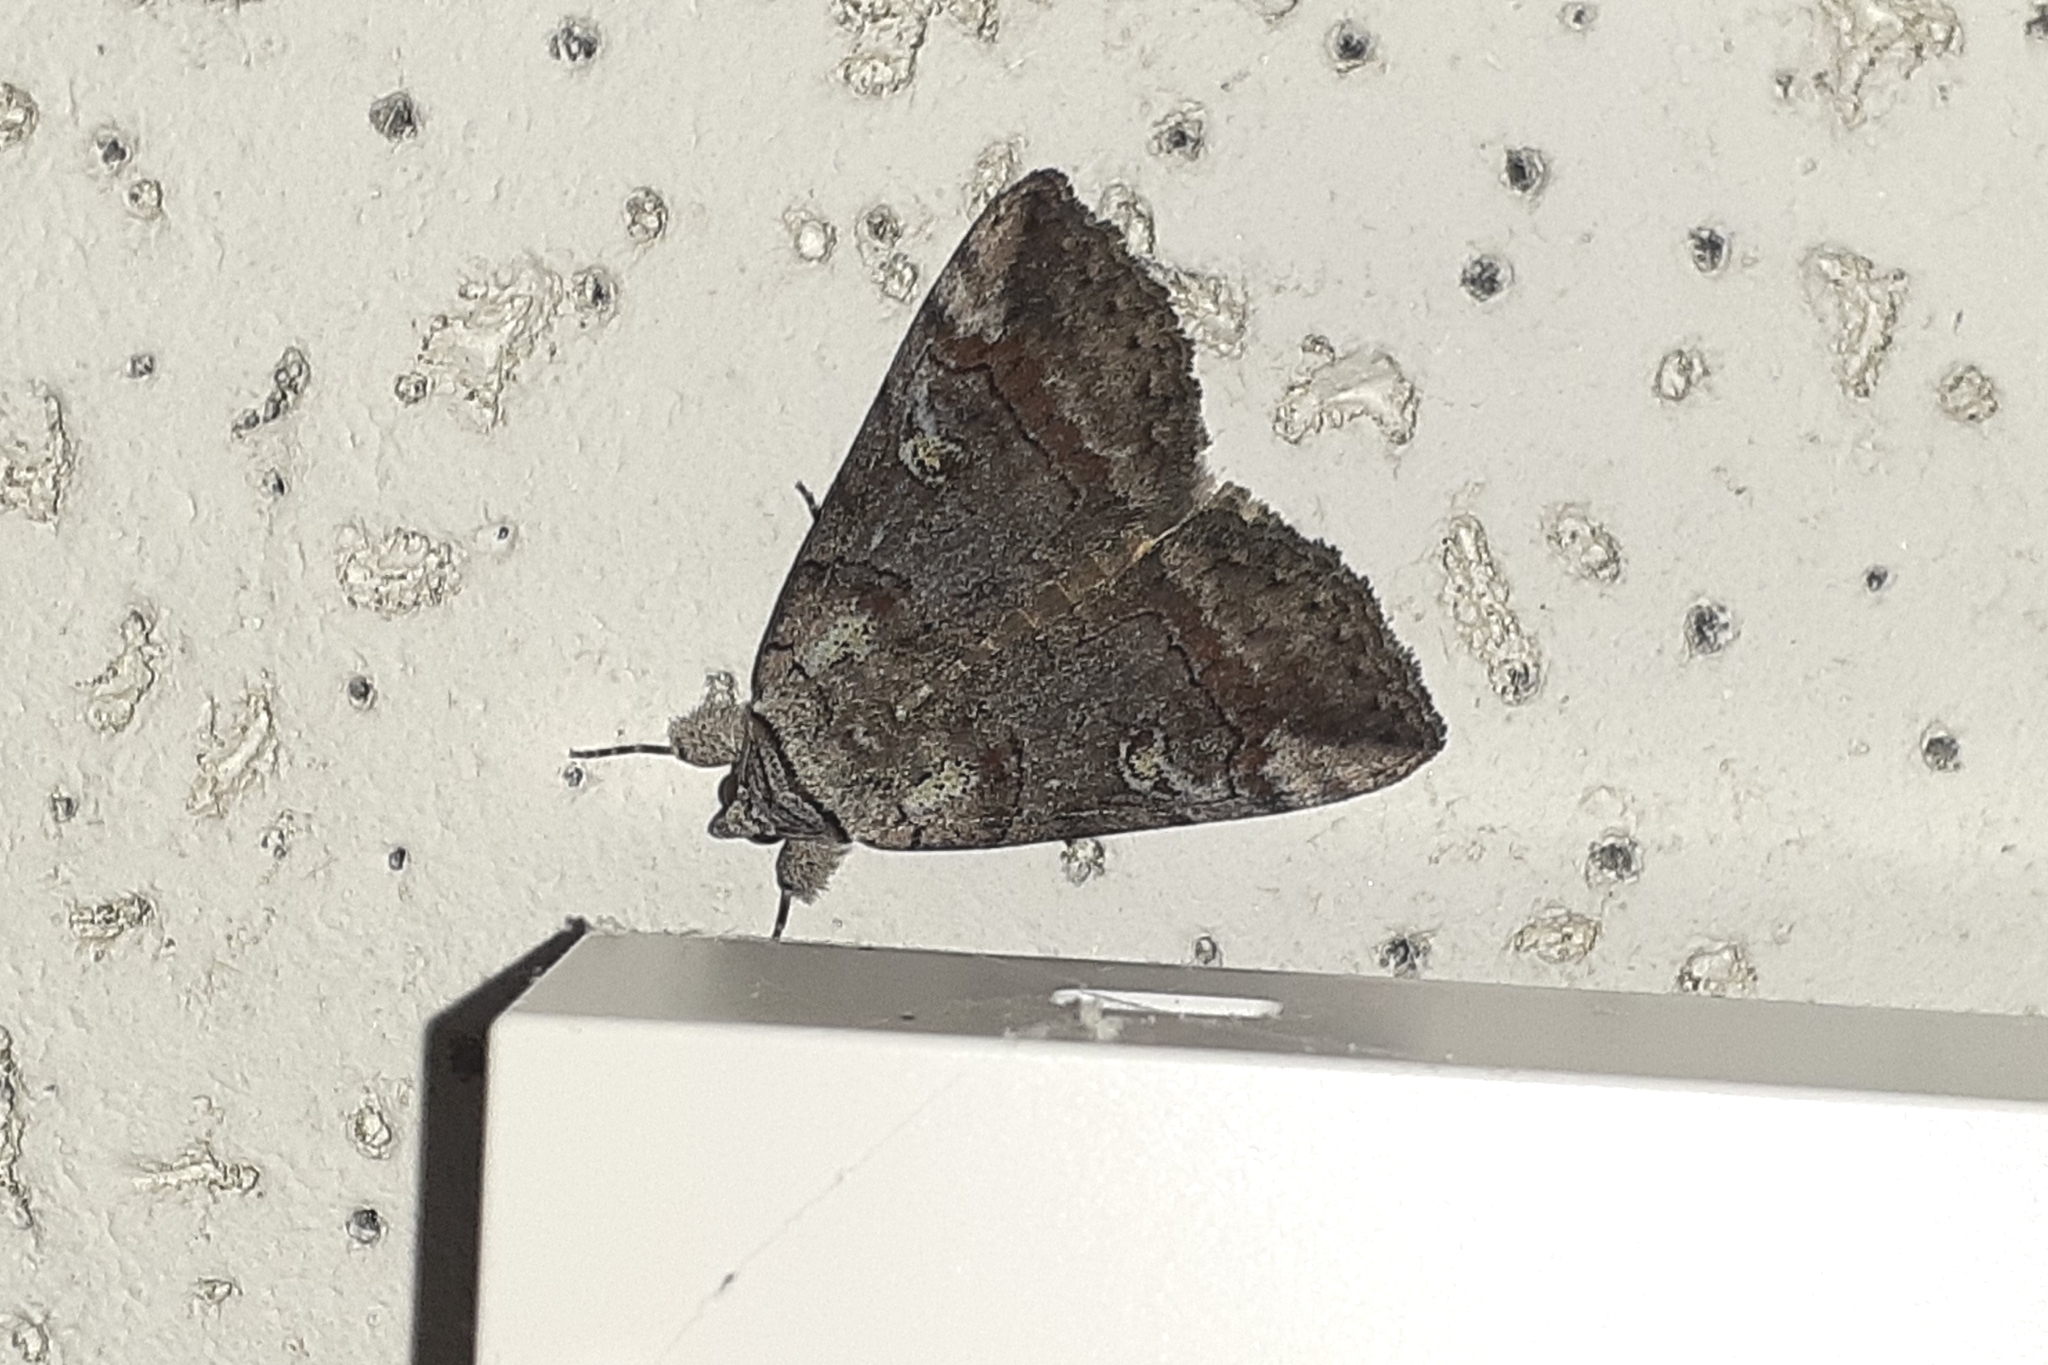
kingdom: Animalia
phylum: Arthropoda
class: Insecta
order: Lepidoptera
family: Erebidae
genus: Catocala
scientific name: Catocala similis
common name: Similar underwing
